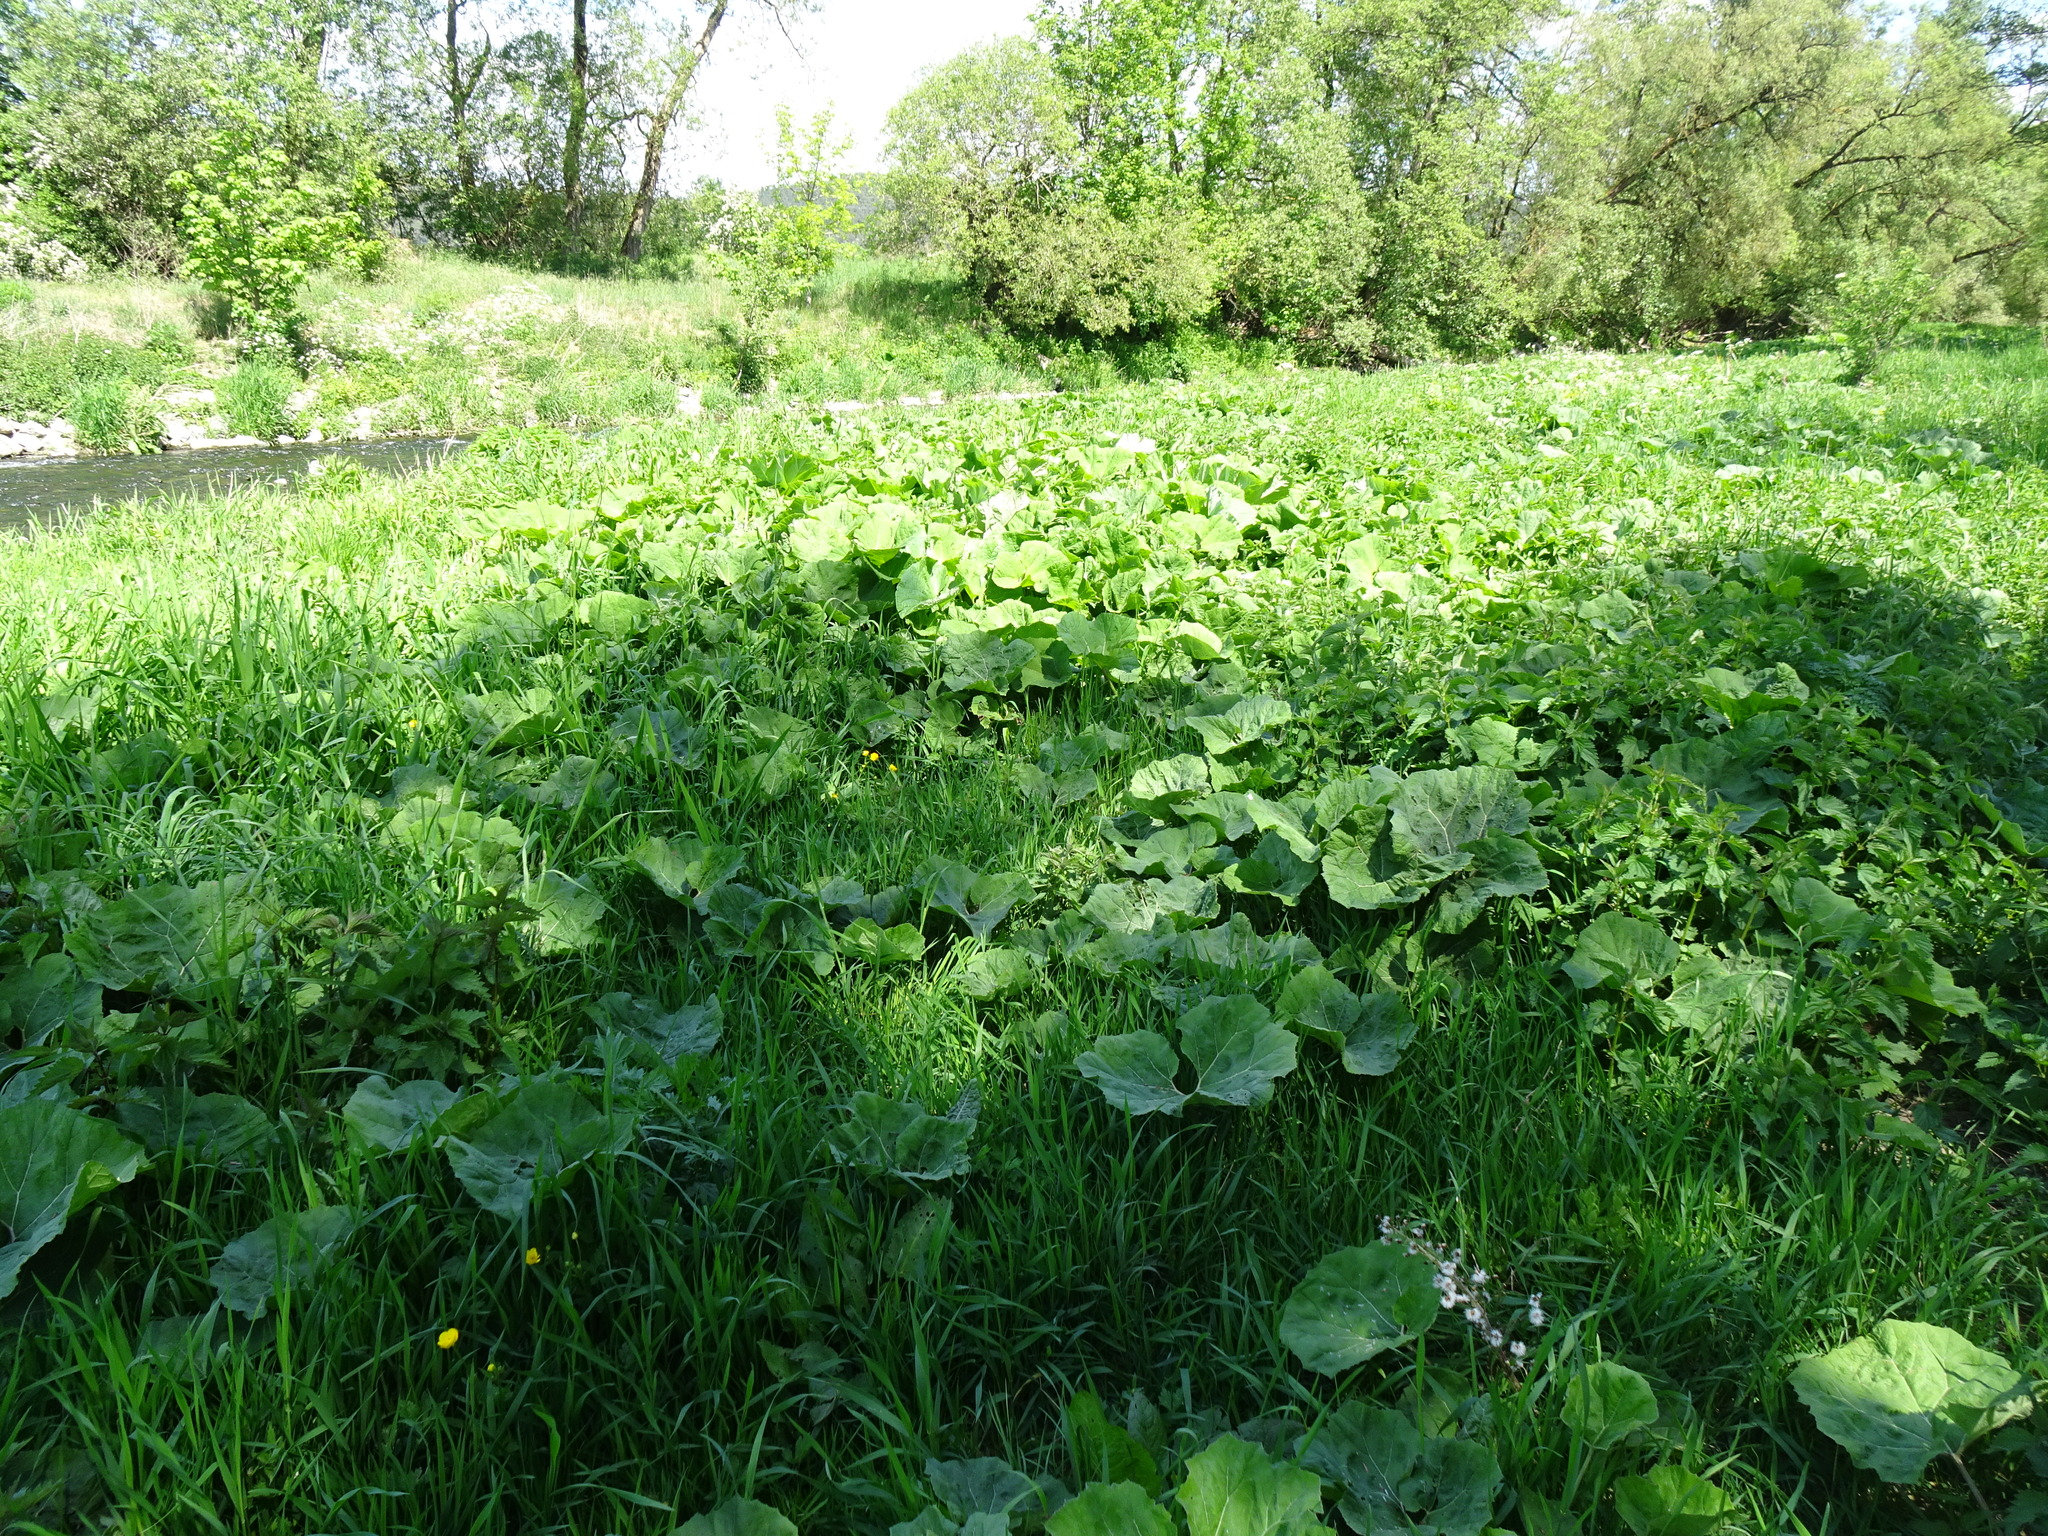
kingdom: Plantae
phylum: Tracheophyta
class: Magnoliopsida
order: Asterales
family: Asteraceae
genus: Petasites
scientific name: Petasites hybridus
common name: Butterbur
